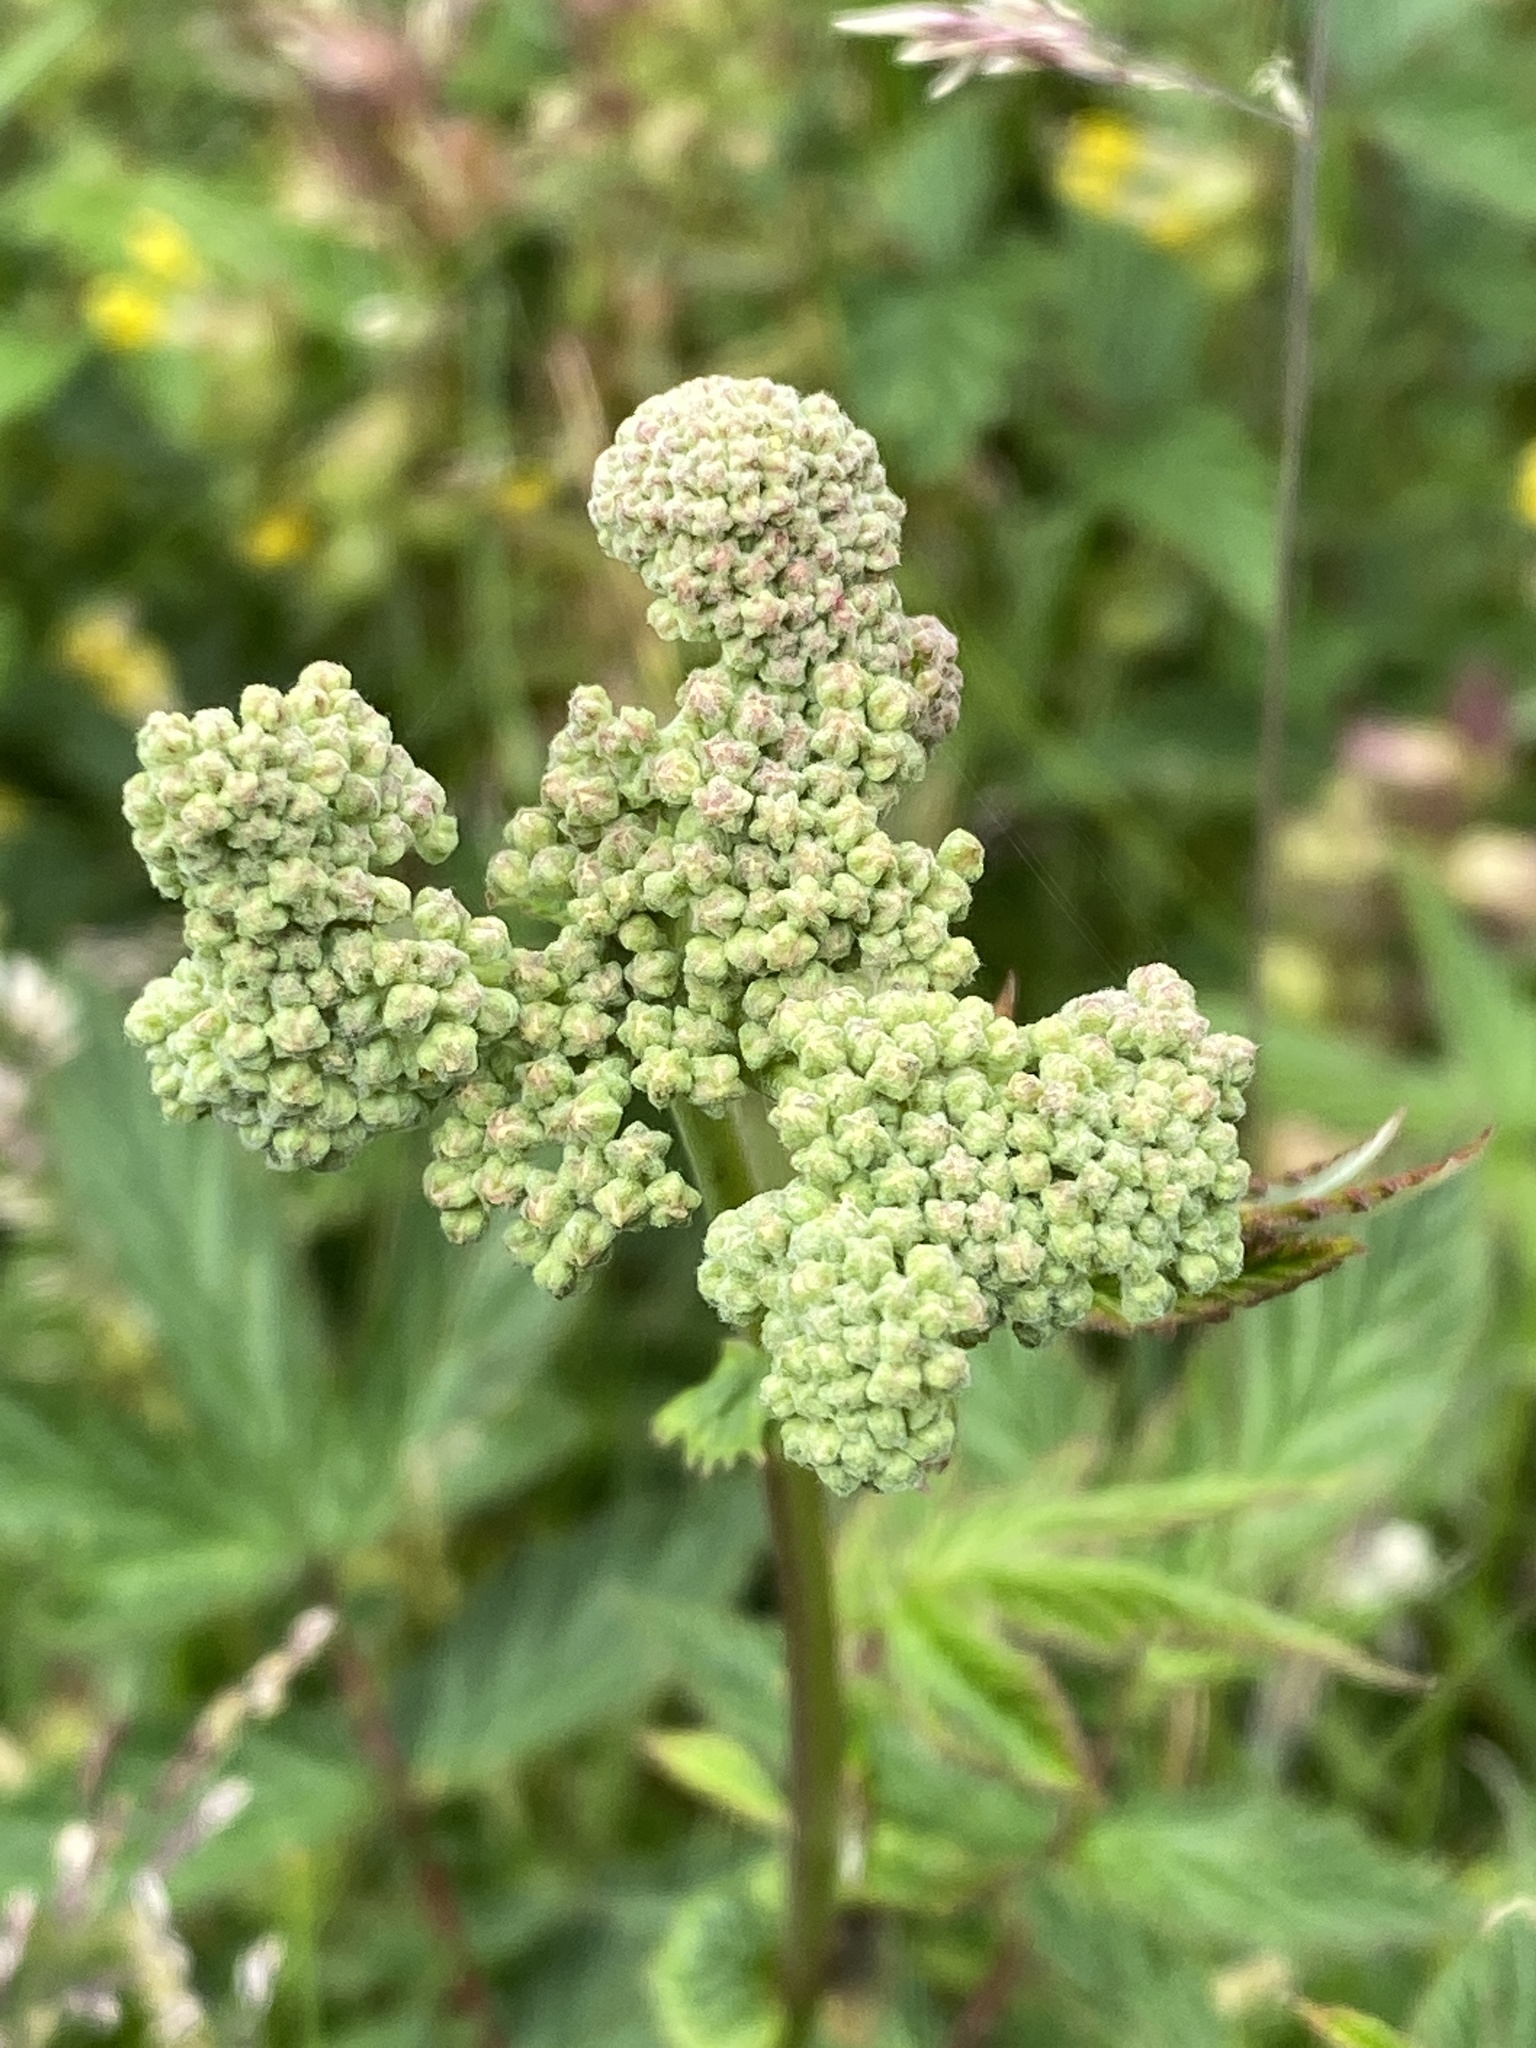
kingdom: Plantae
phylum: Tracheophyta
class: Magnoliopsida
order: Rosales
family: Rosaceae
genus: Filipendula
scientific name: Filipendula ulmaria
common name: Meadowsweet
